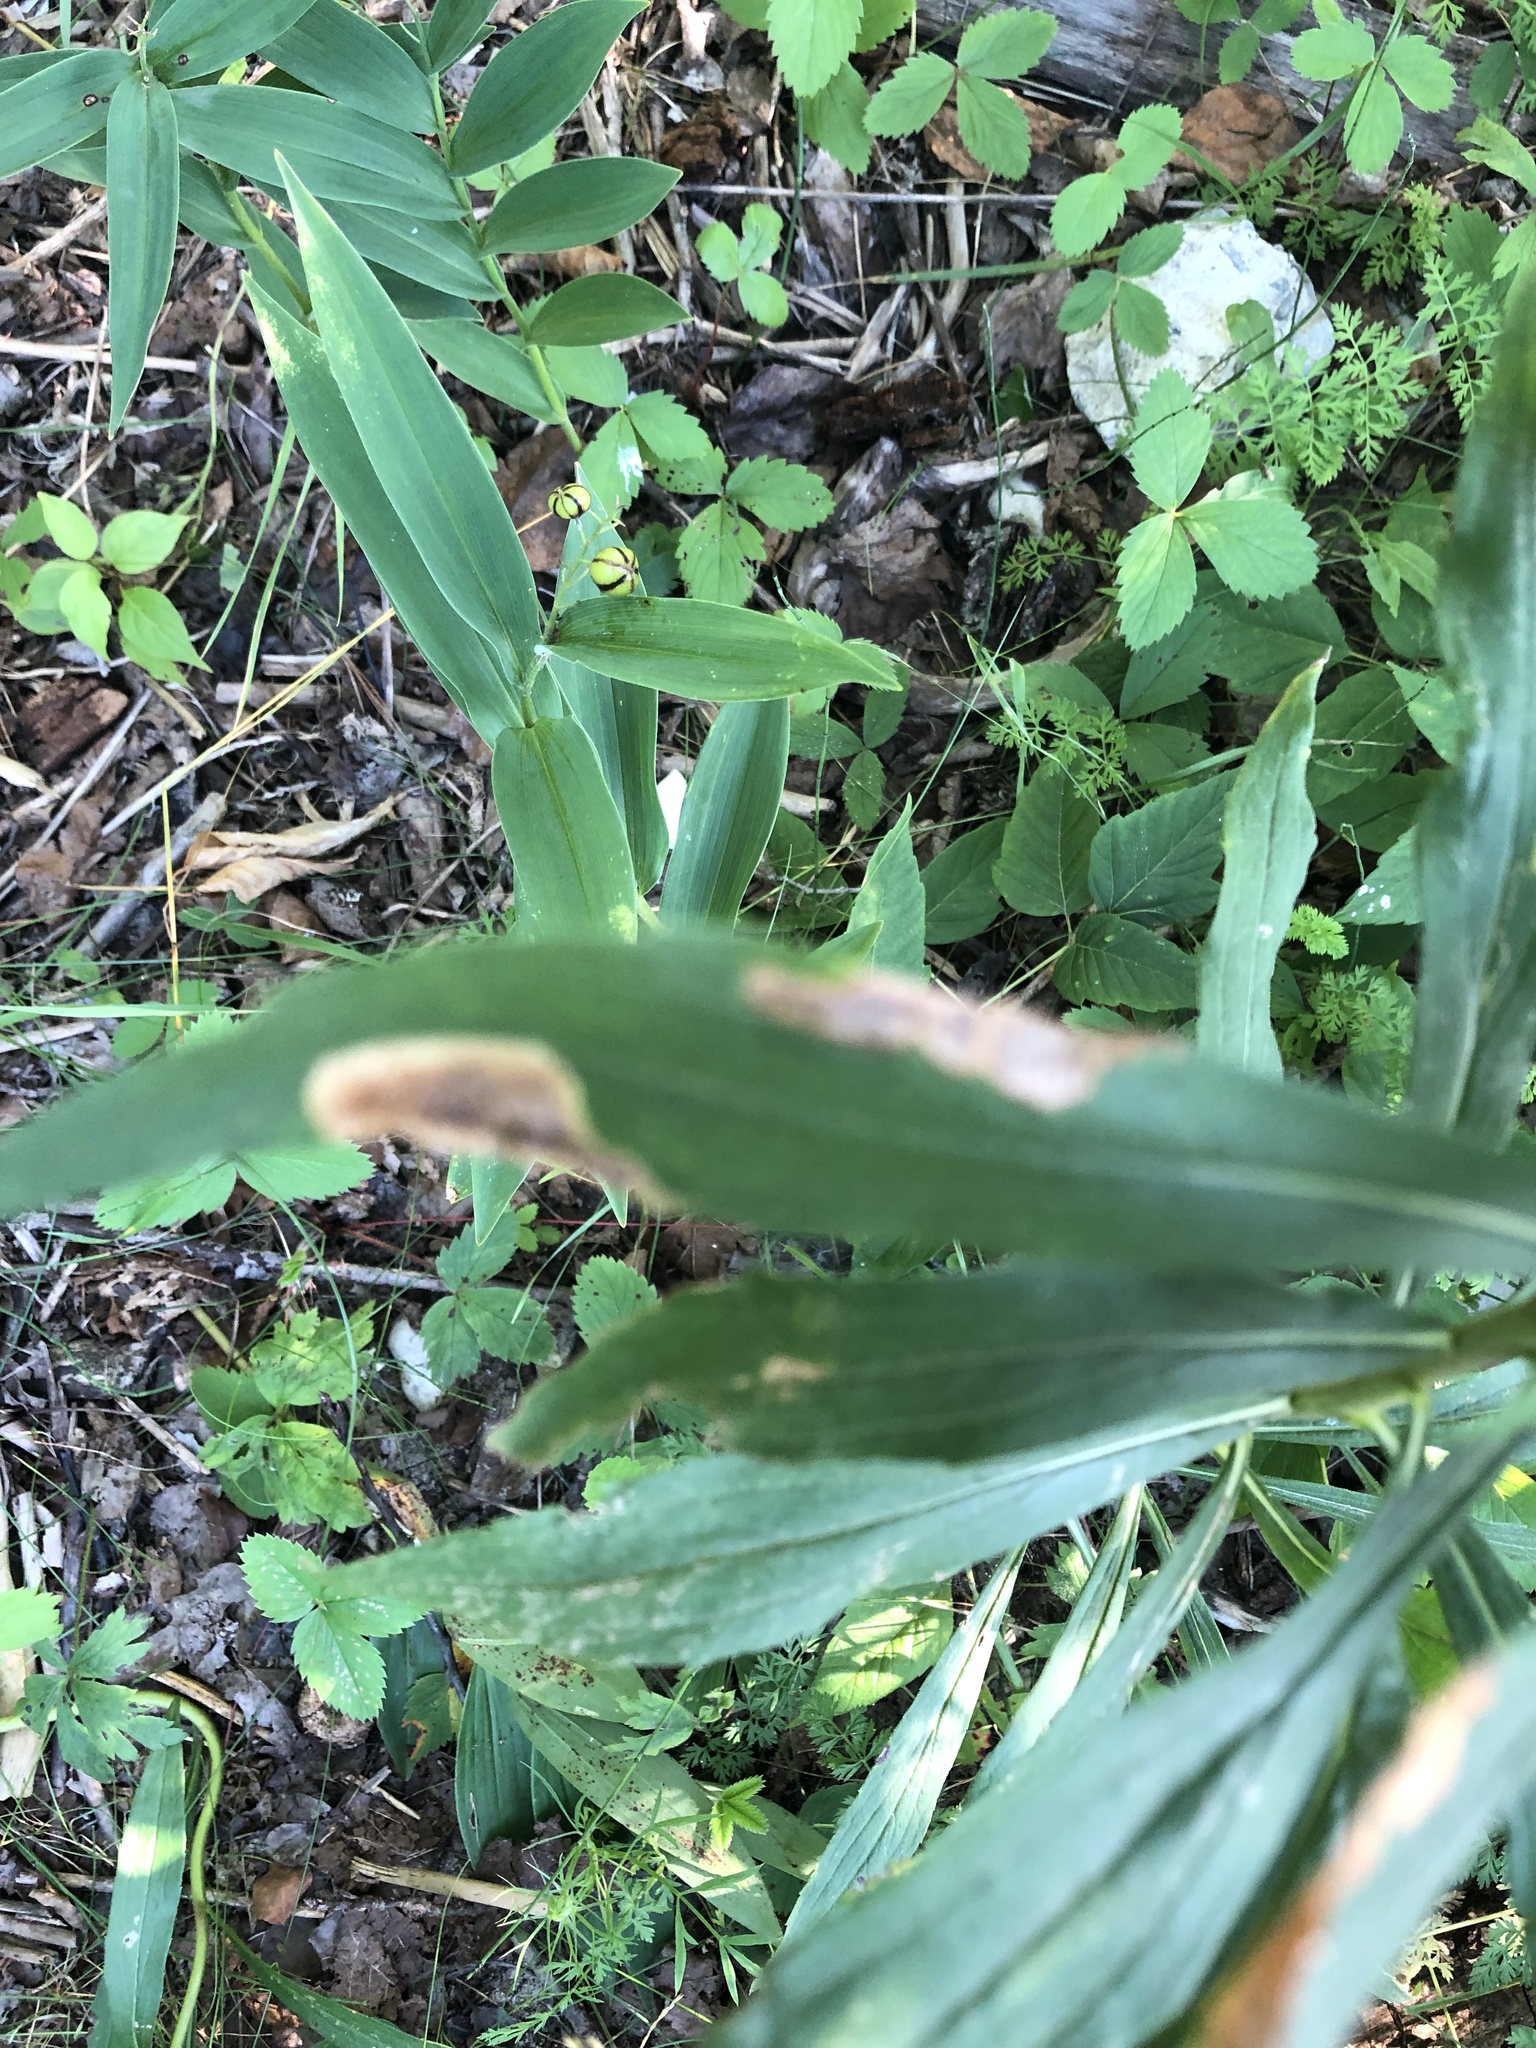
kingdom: Animalia
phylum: Arthropoda
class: Insecta
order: Diptera
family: Agromyzidae
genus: Nemorimyza
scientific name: Nemorimyza posticata
